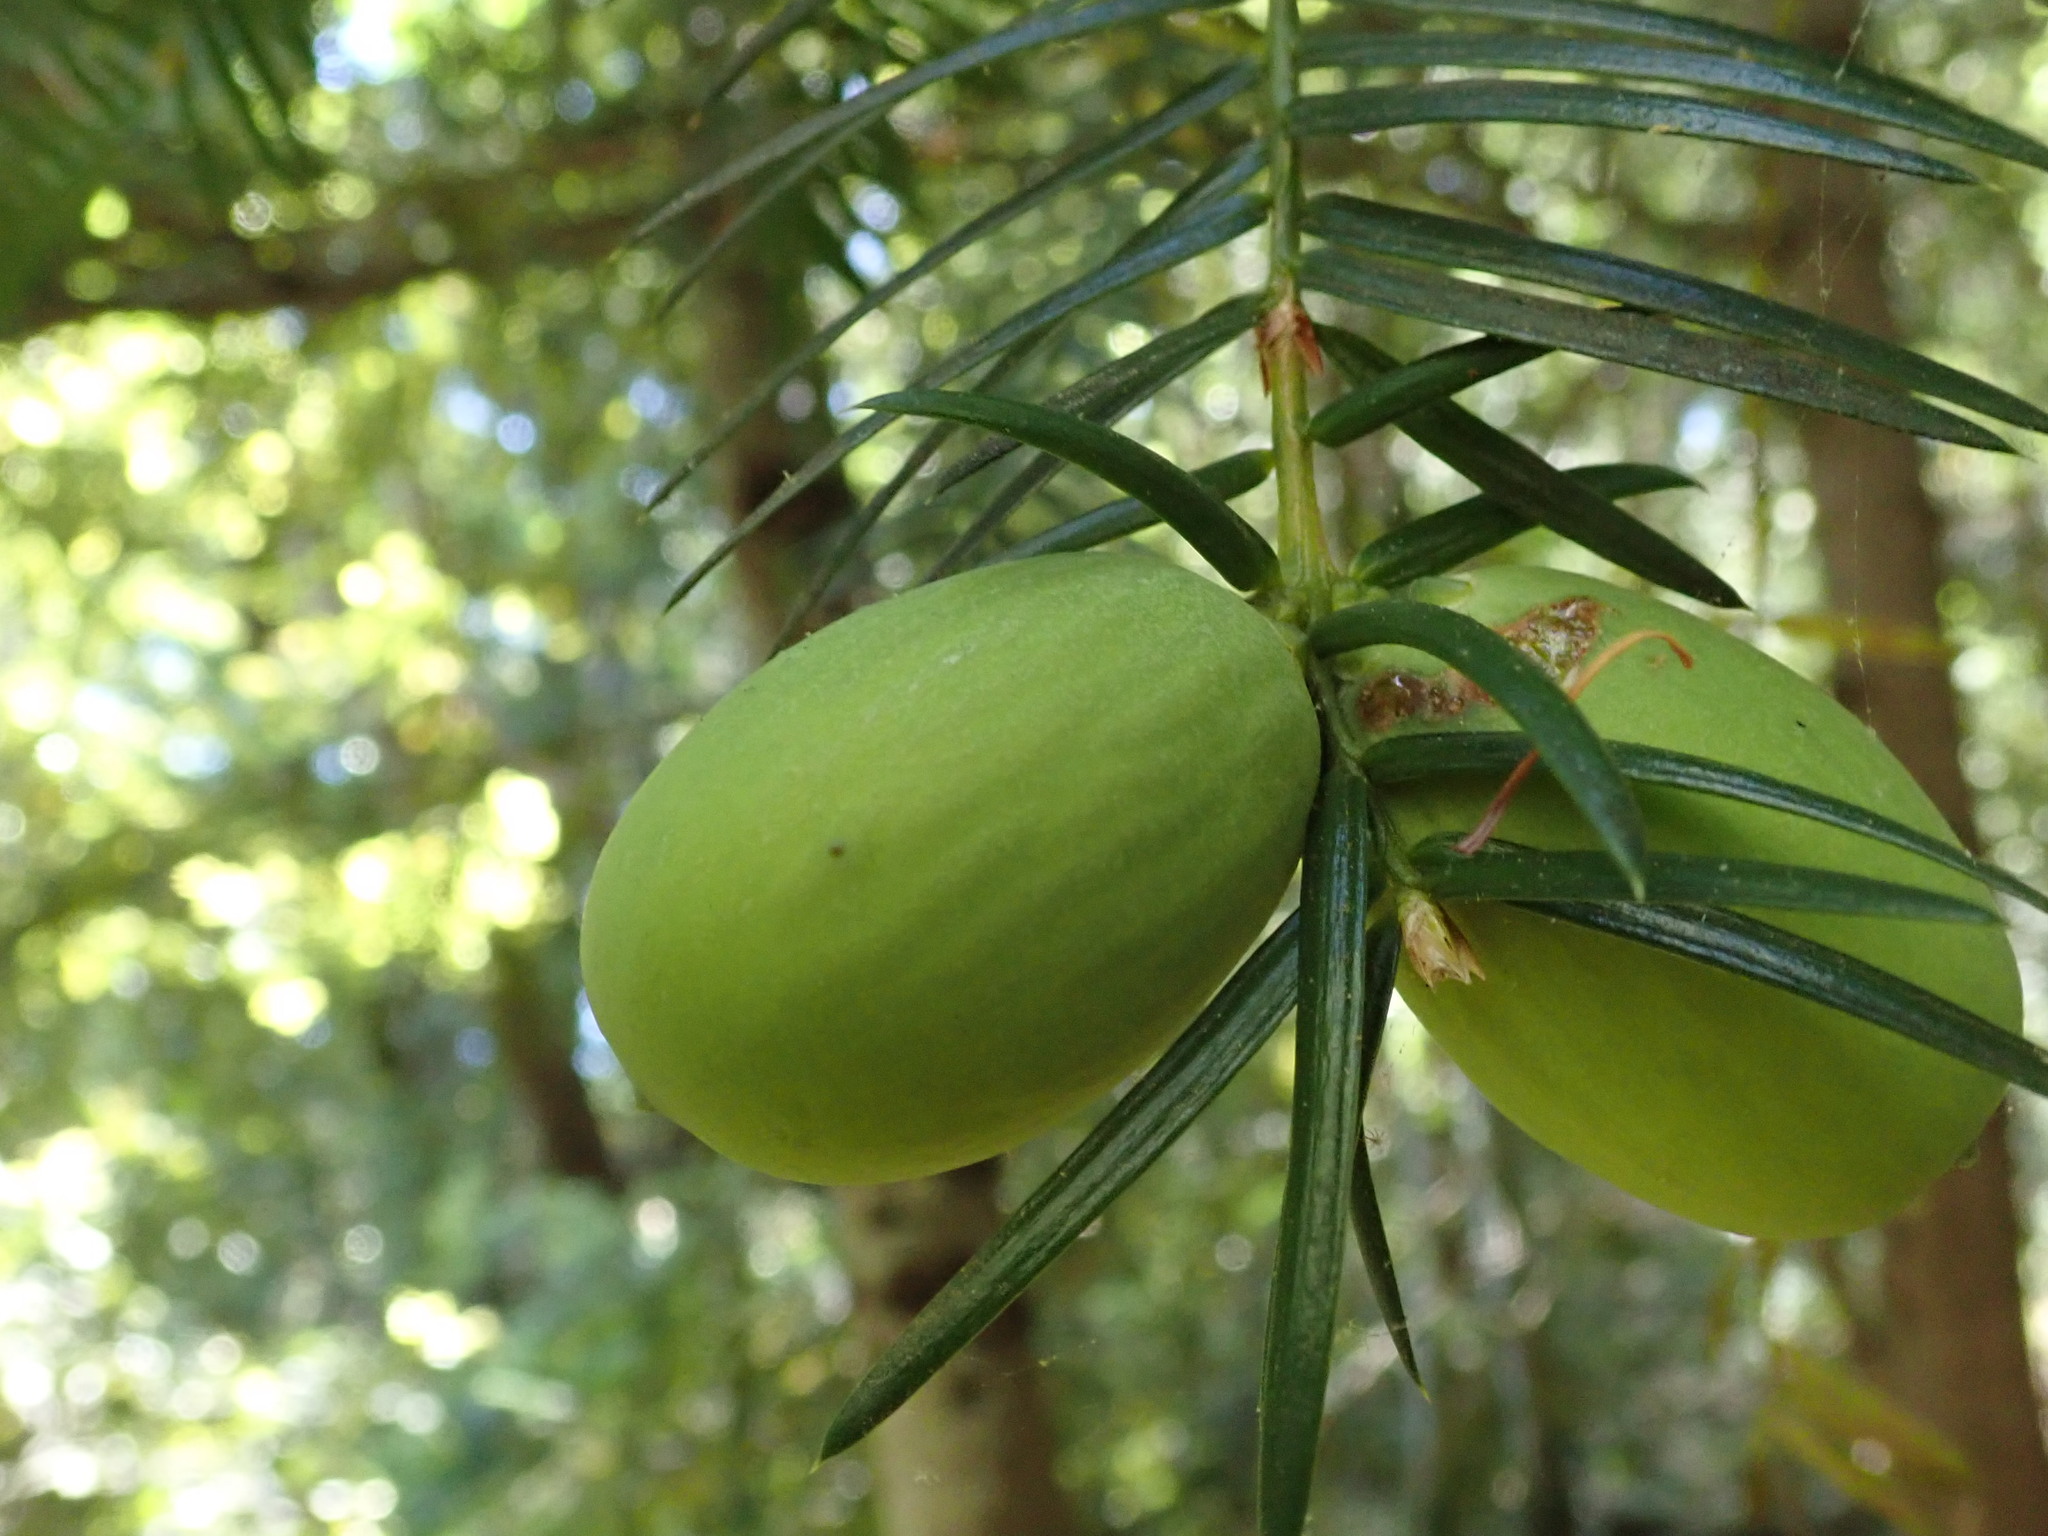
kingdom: Plantae
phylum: Tracheophyta
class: Pinopsida
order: Pinales
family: Taxaceae
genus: Torreya
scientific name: Torreya californica
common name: California torreya
